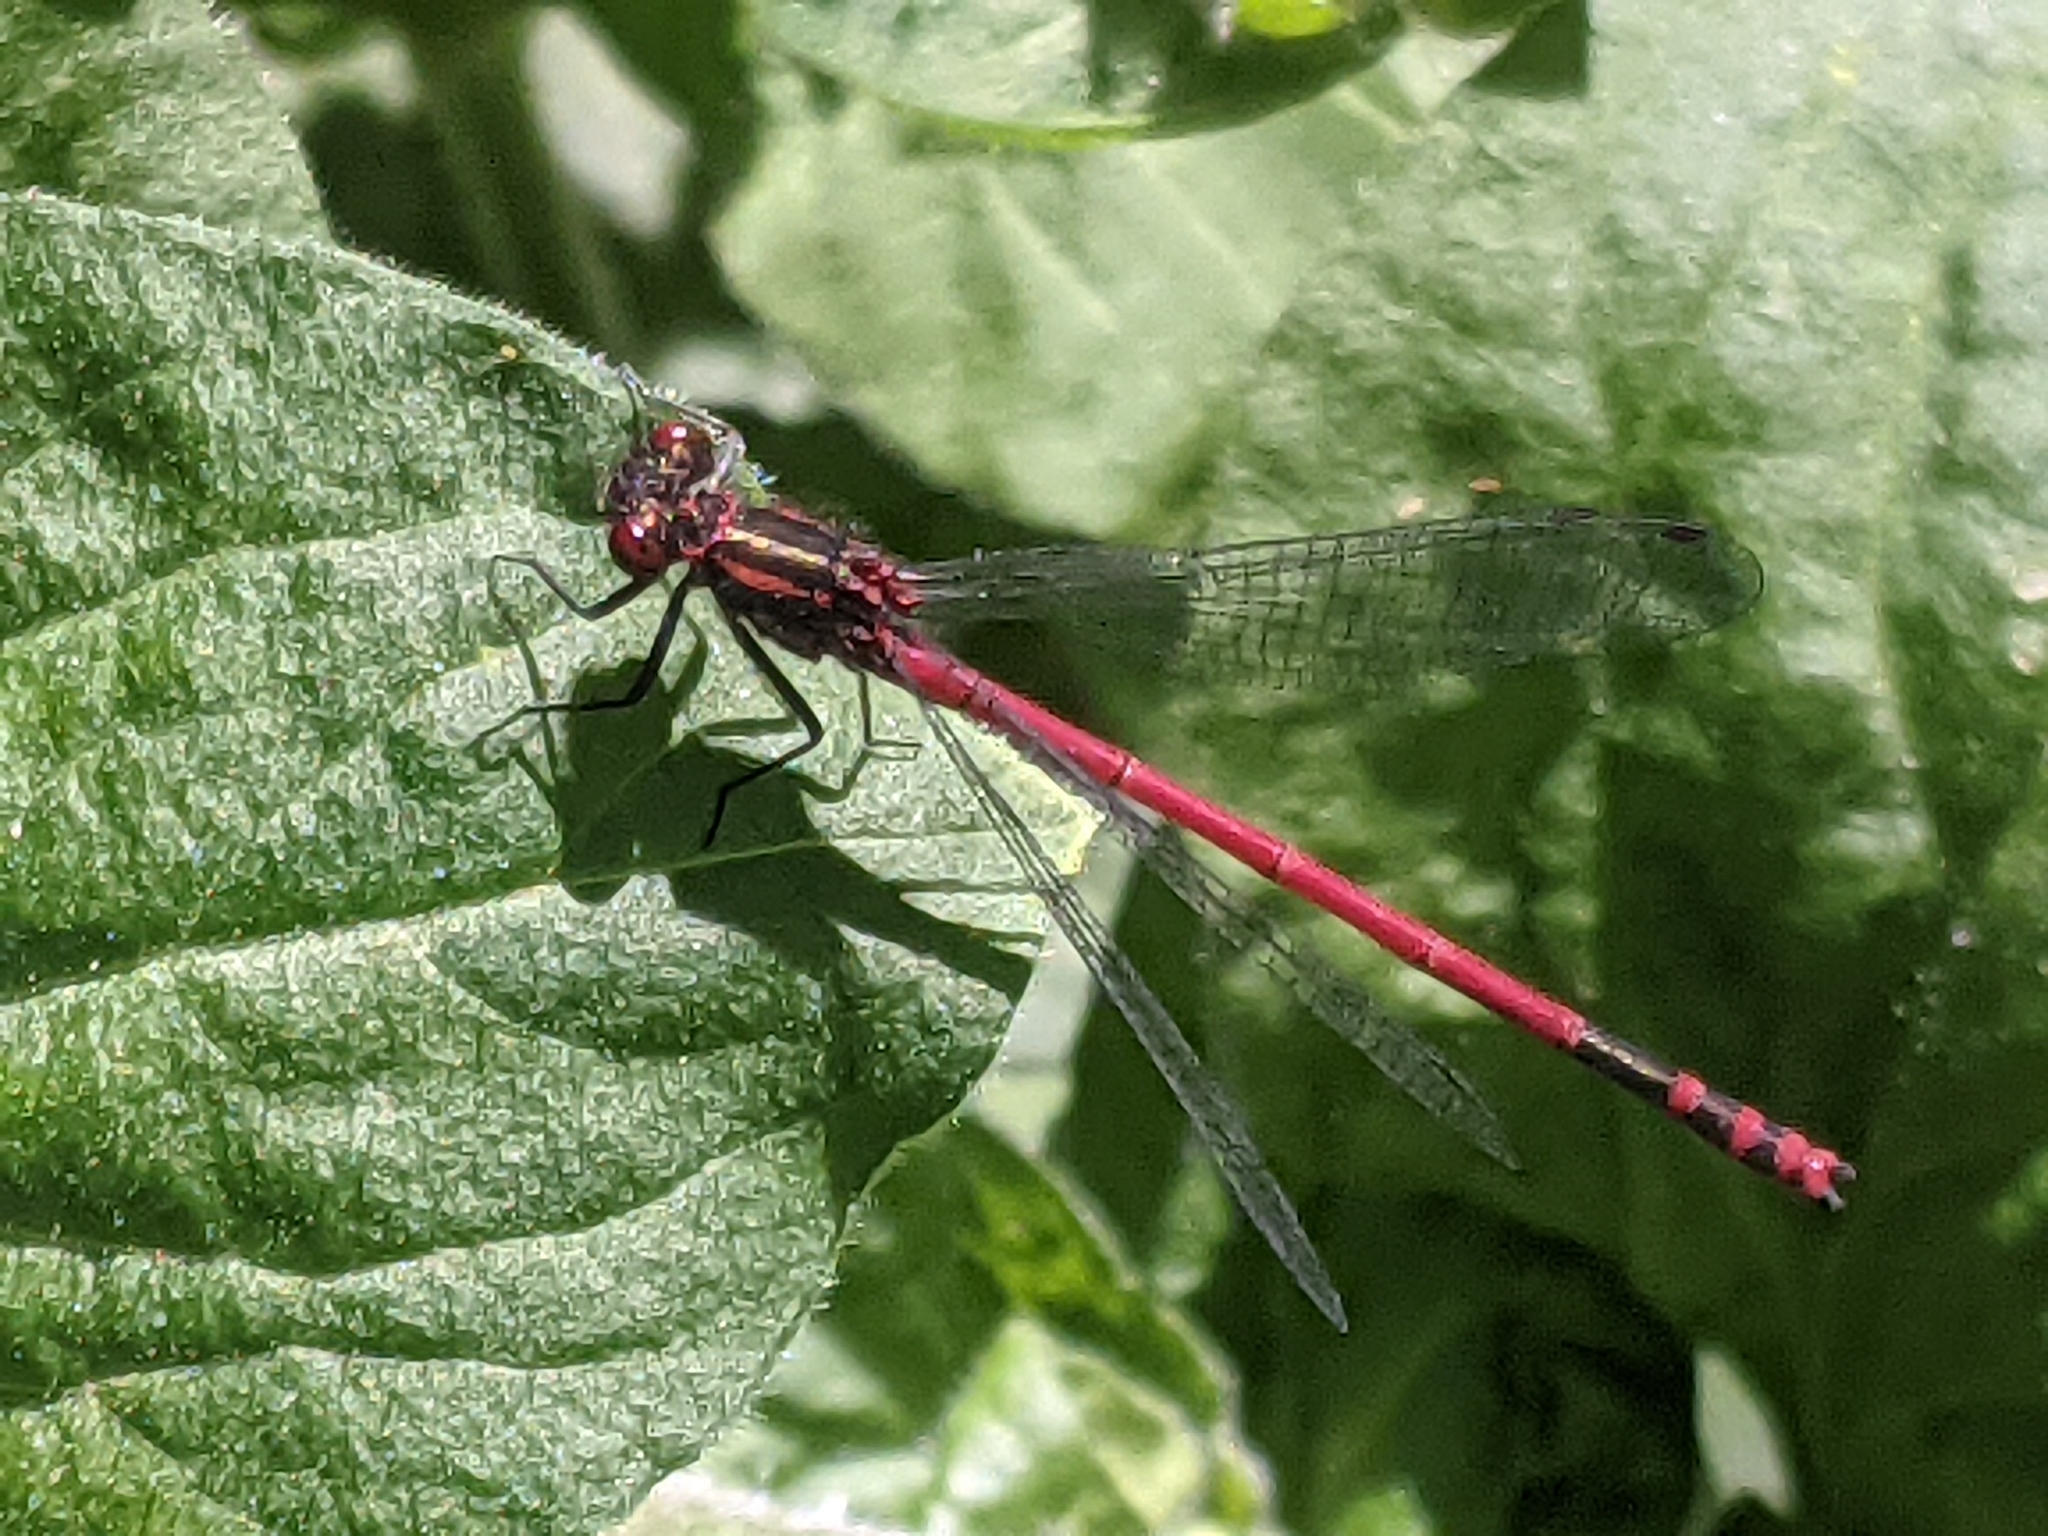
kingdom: Animalia
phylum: Arthropoda
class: Insecta
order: Odonata
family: Coenagrionidae
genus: Pyrrhosoma
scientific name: Pyrrhosoma nymphula
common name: Large red damsel
